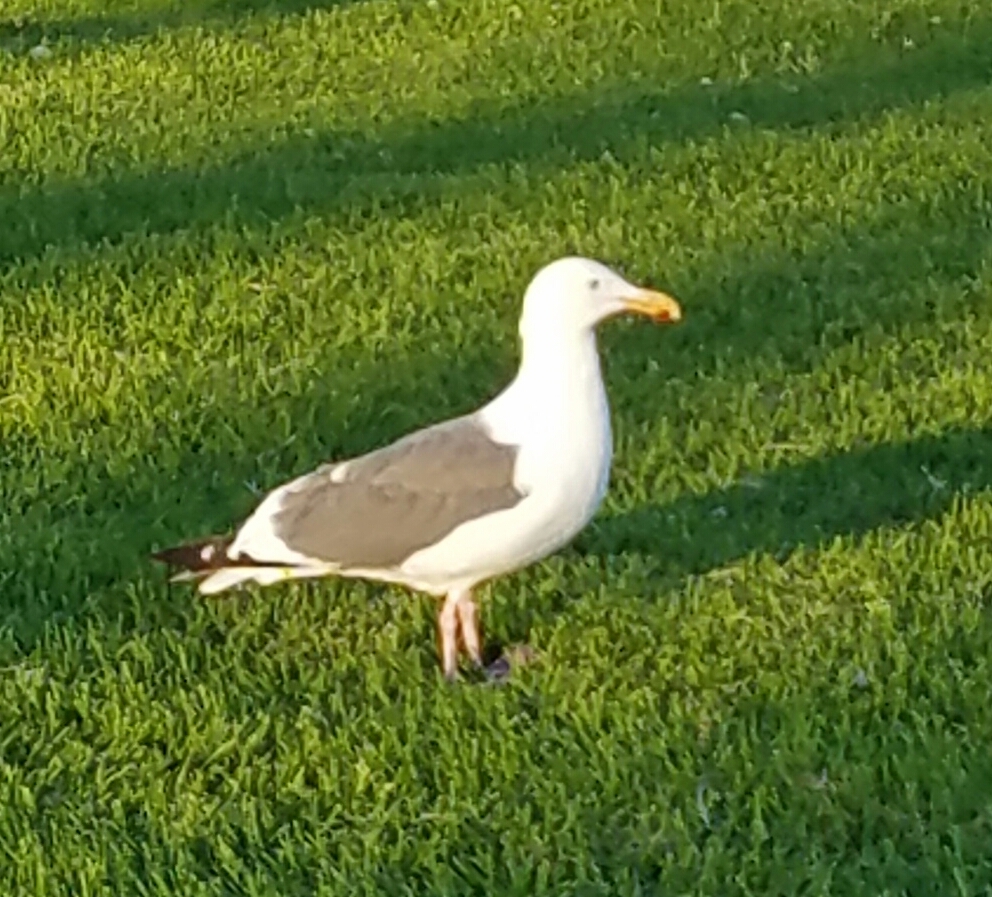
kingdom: Animalia
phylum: Chordata
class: Aves
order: Charadriiformes
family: Laridae
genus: Larus
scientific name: Larus occidentalis
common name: Western gull
